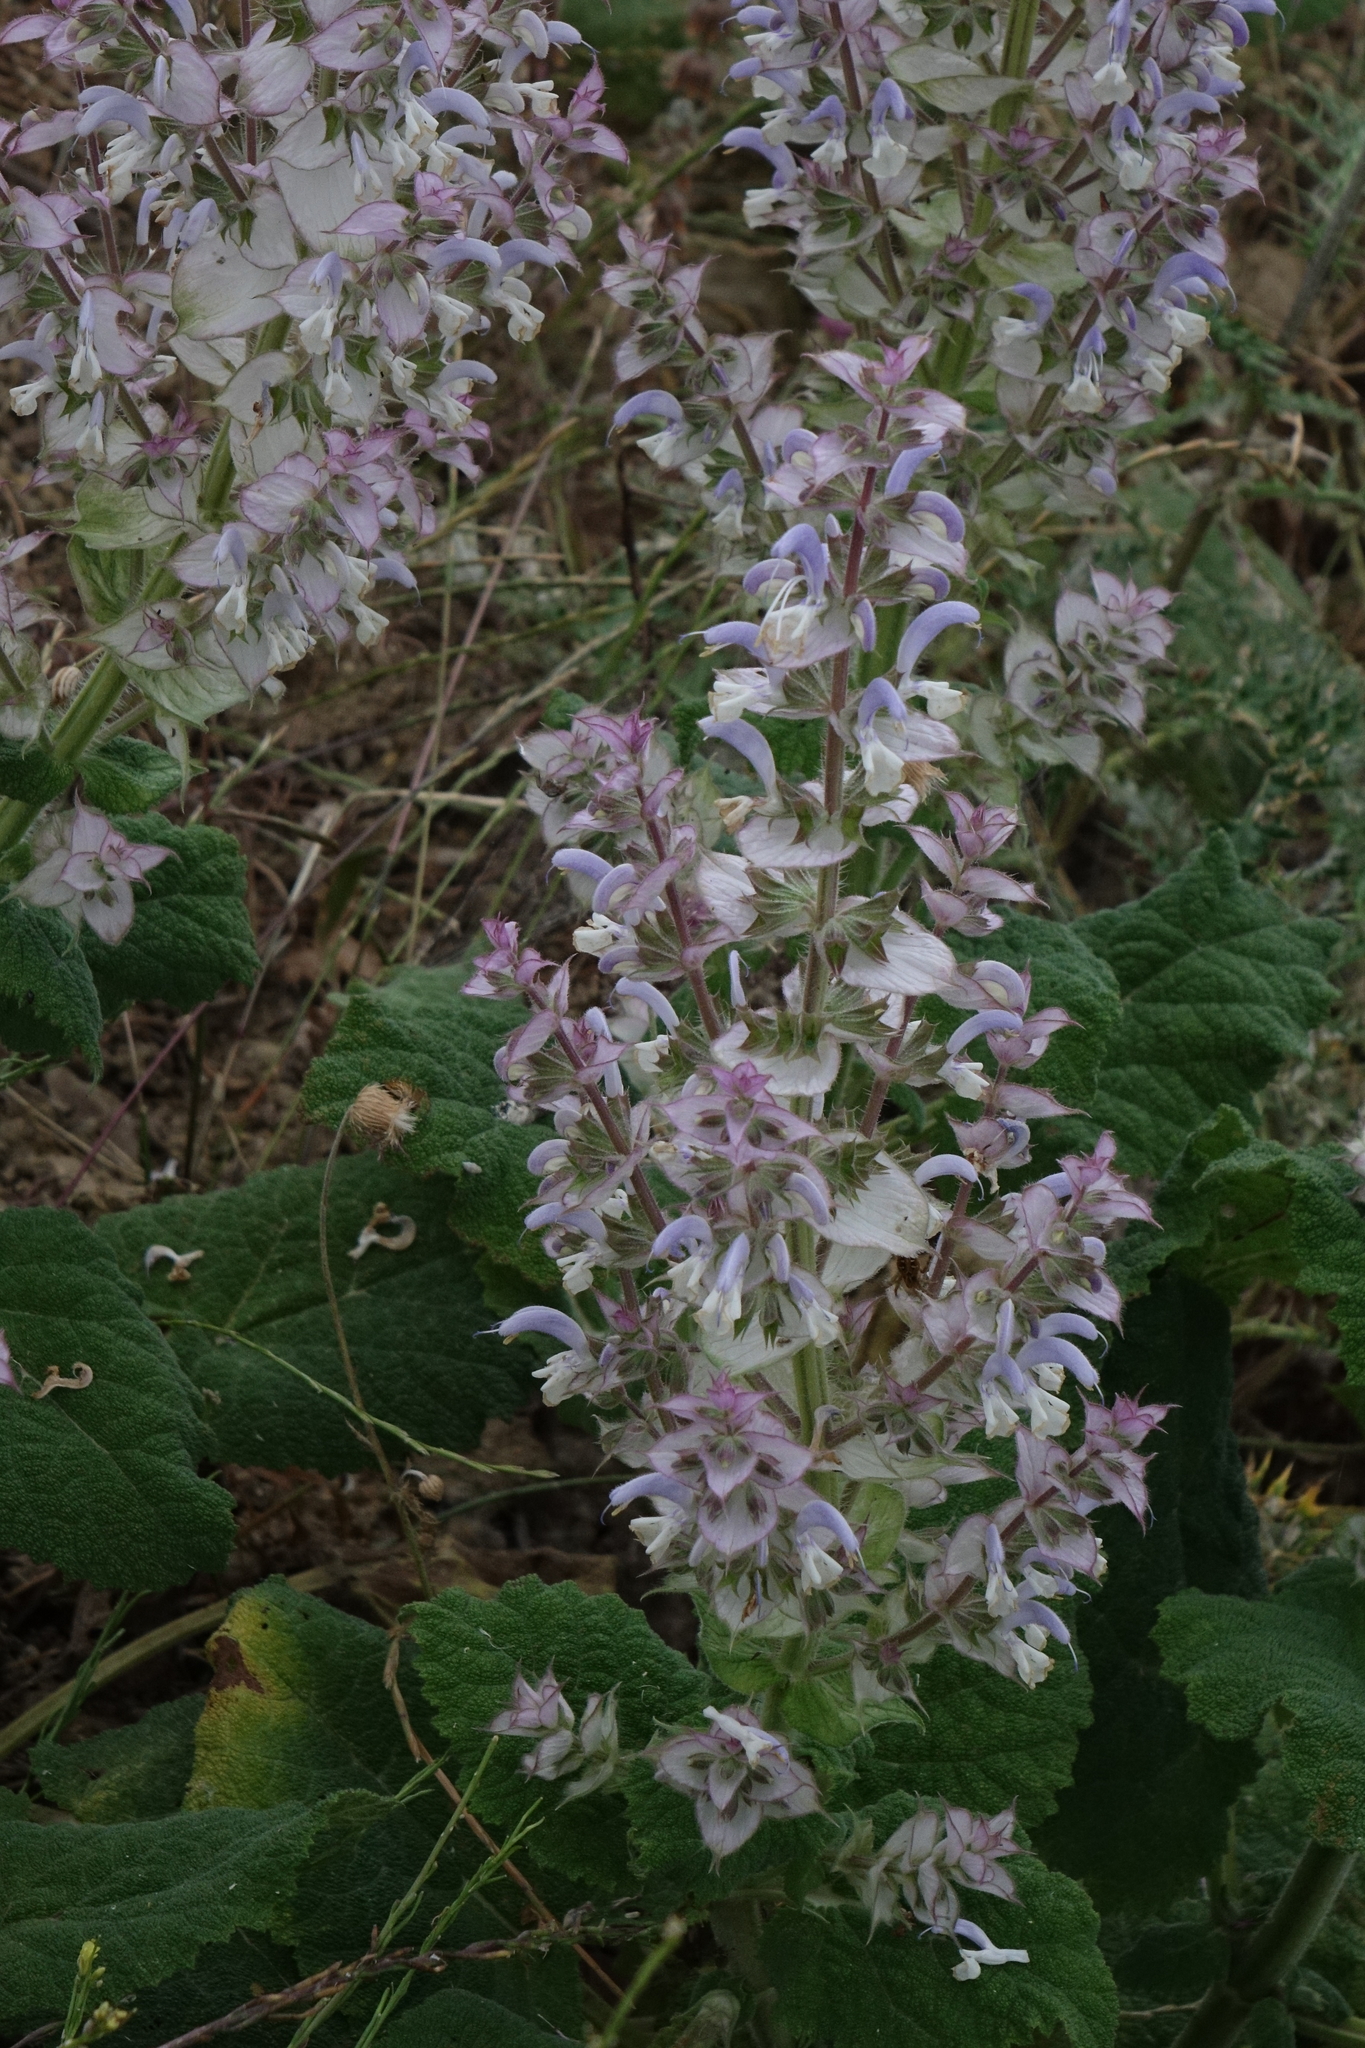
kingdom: Plantae
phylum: Tracheophyta
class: Magnoliopsida
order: Lamiales
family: Lamiaceae
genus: Salvia
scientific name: Salvia sclarea
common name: Clary
